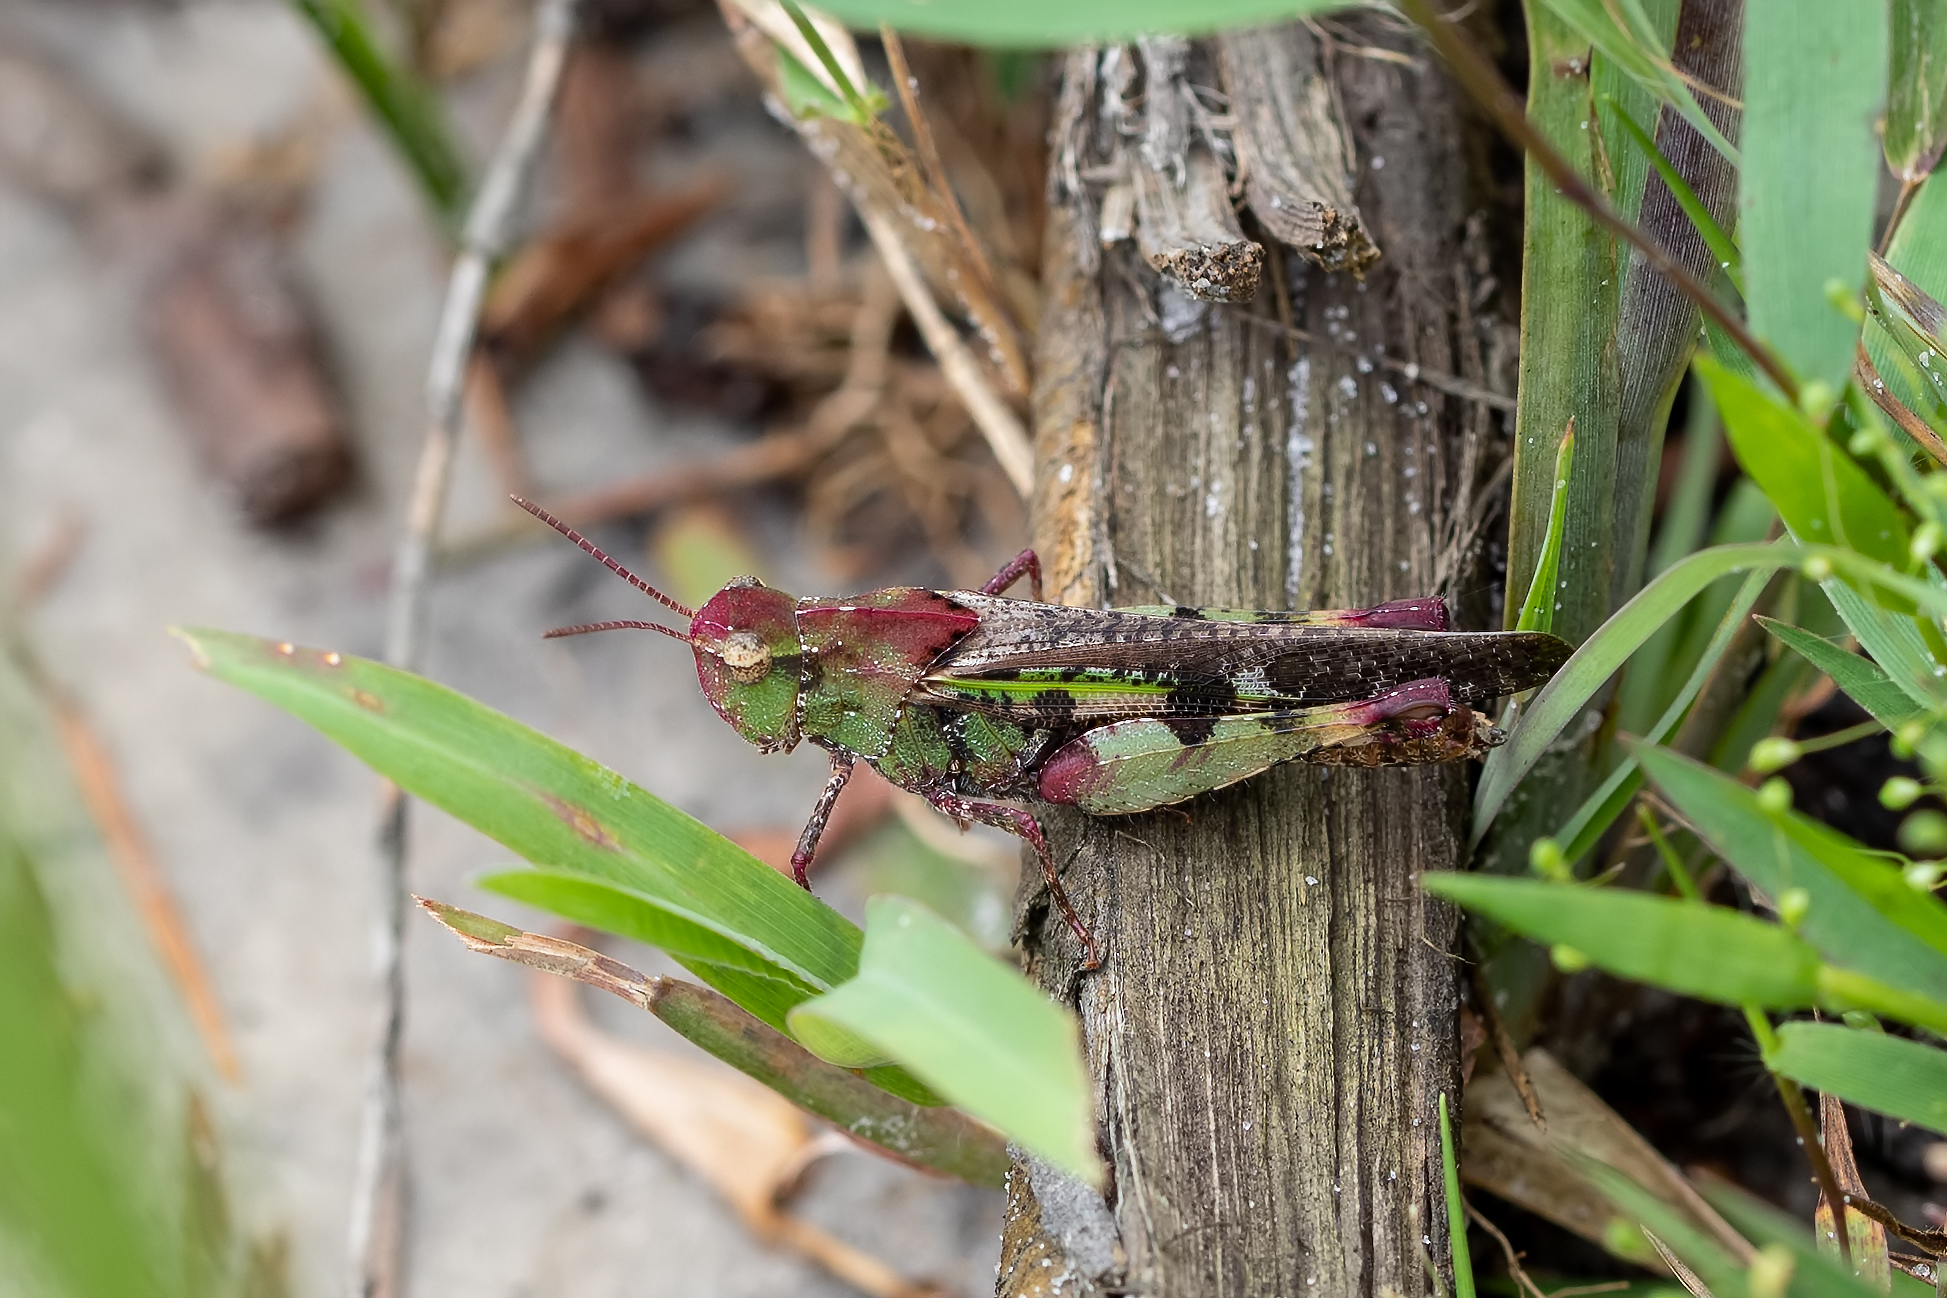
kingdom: Animalia
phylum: Arthropoda
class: Insecta
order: Orthoptera
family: Acrididae
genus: Chortophaga
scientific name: Chortophaga australior
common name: Southern green-striped grasshopper
